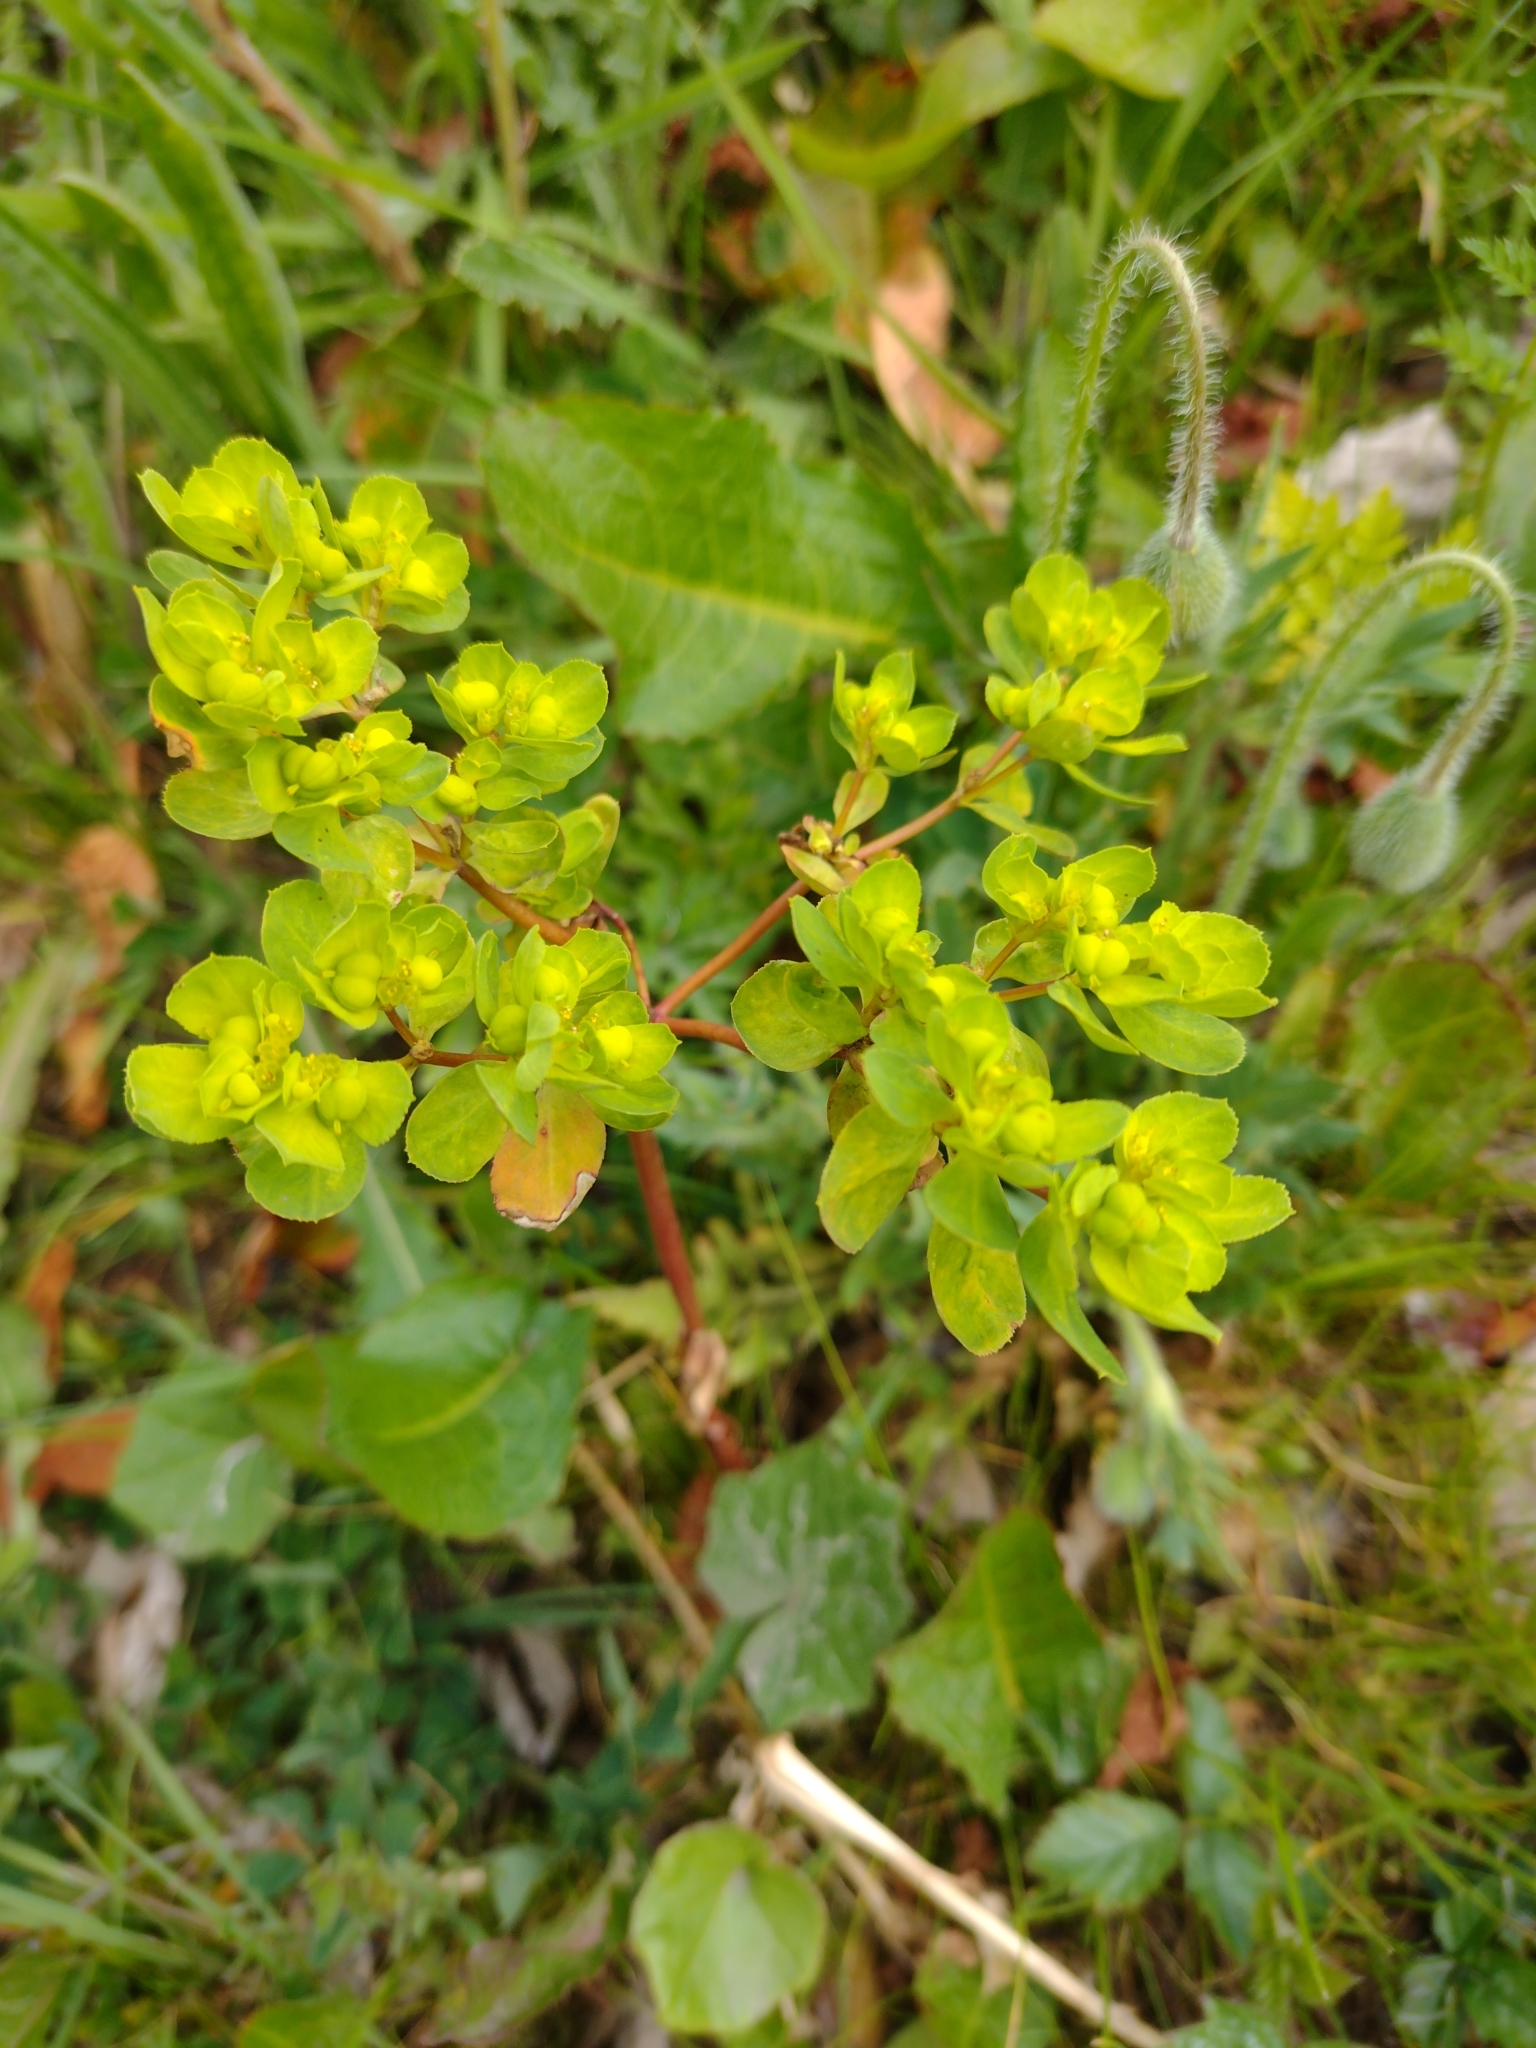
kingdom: Plantae
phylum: Tracheophyta
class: Magnoliopsida
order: Malpighiales
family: Euphorbiaceae
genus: Euphorbia
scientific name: Euphorbia helioscopia
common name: Sun spurge
